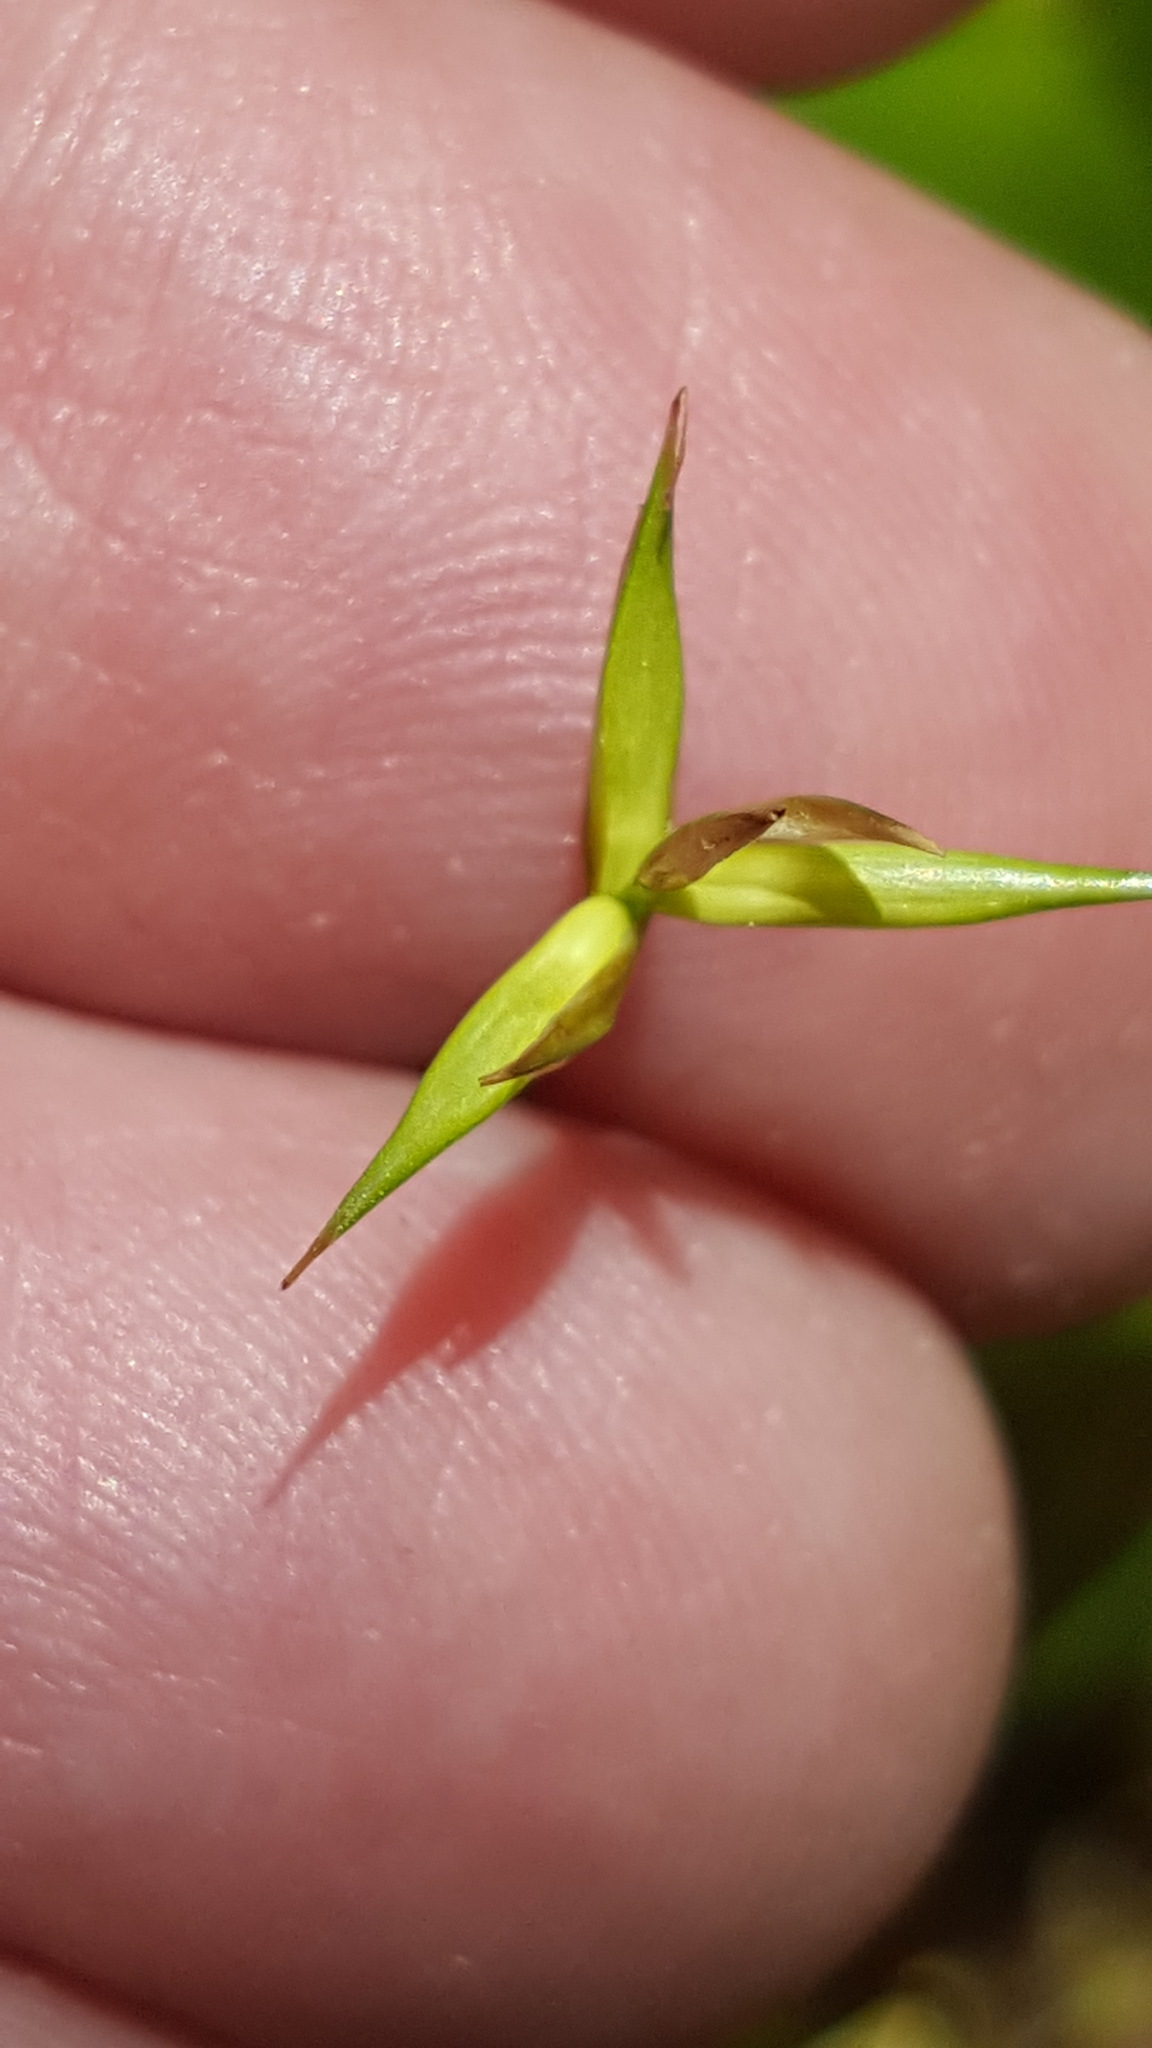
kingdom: Plantae
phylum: Tracheophyta
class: Liliopsida
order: Poales
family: Cyperaceae
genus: Carex
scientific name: Carex pauciflora
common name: Few-flowered sedge
